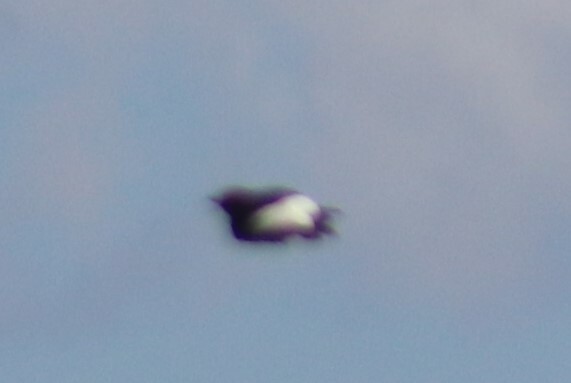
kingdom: Animalia
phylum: Chordata
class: Aves
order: Piciformes
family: Picidae
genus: Melanerpes
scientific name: Melanerpes erythrocephalus
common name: Red-headed woodpecker
